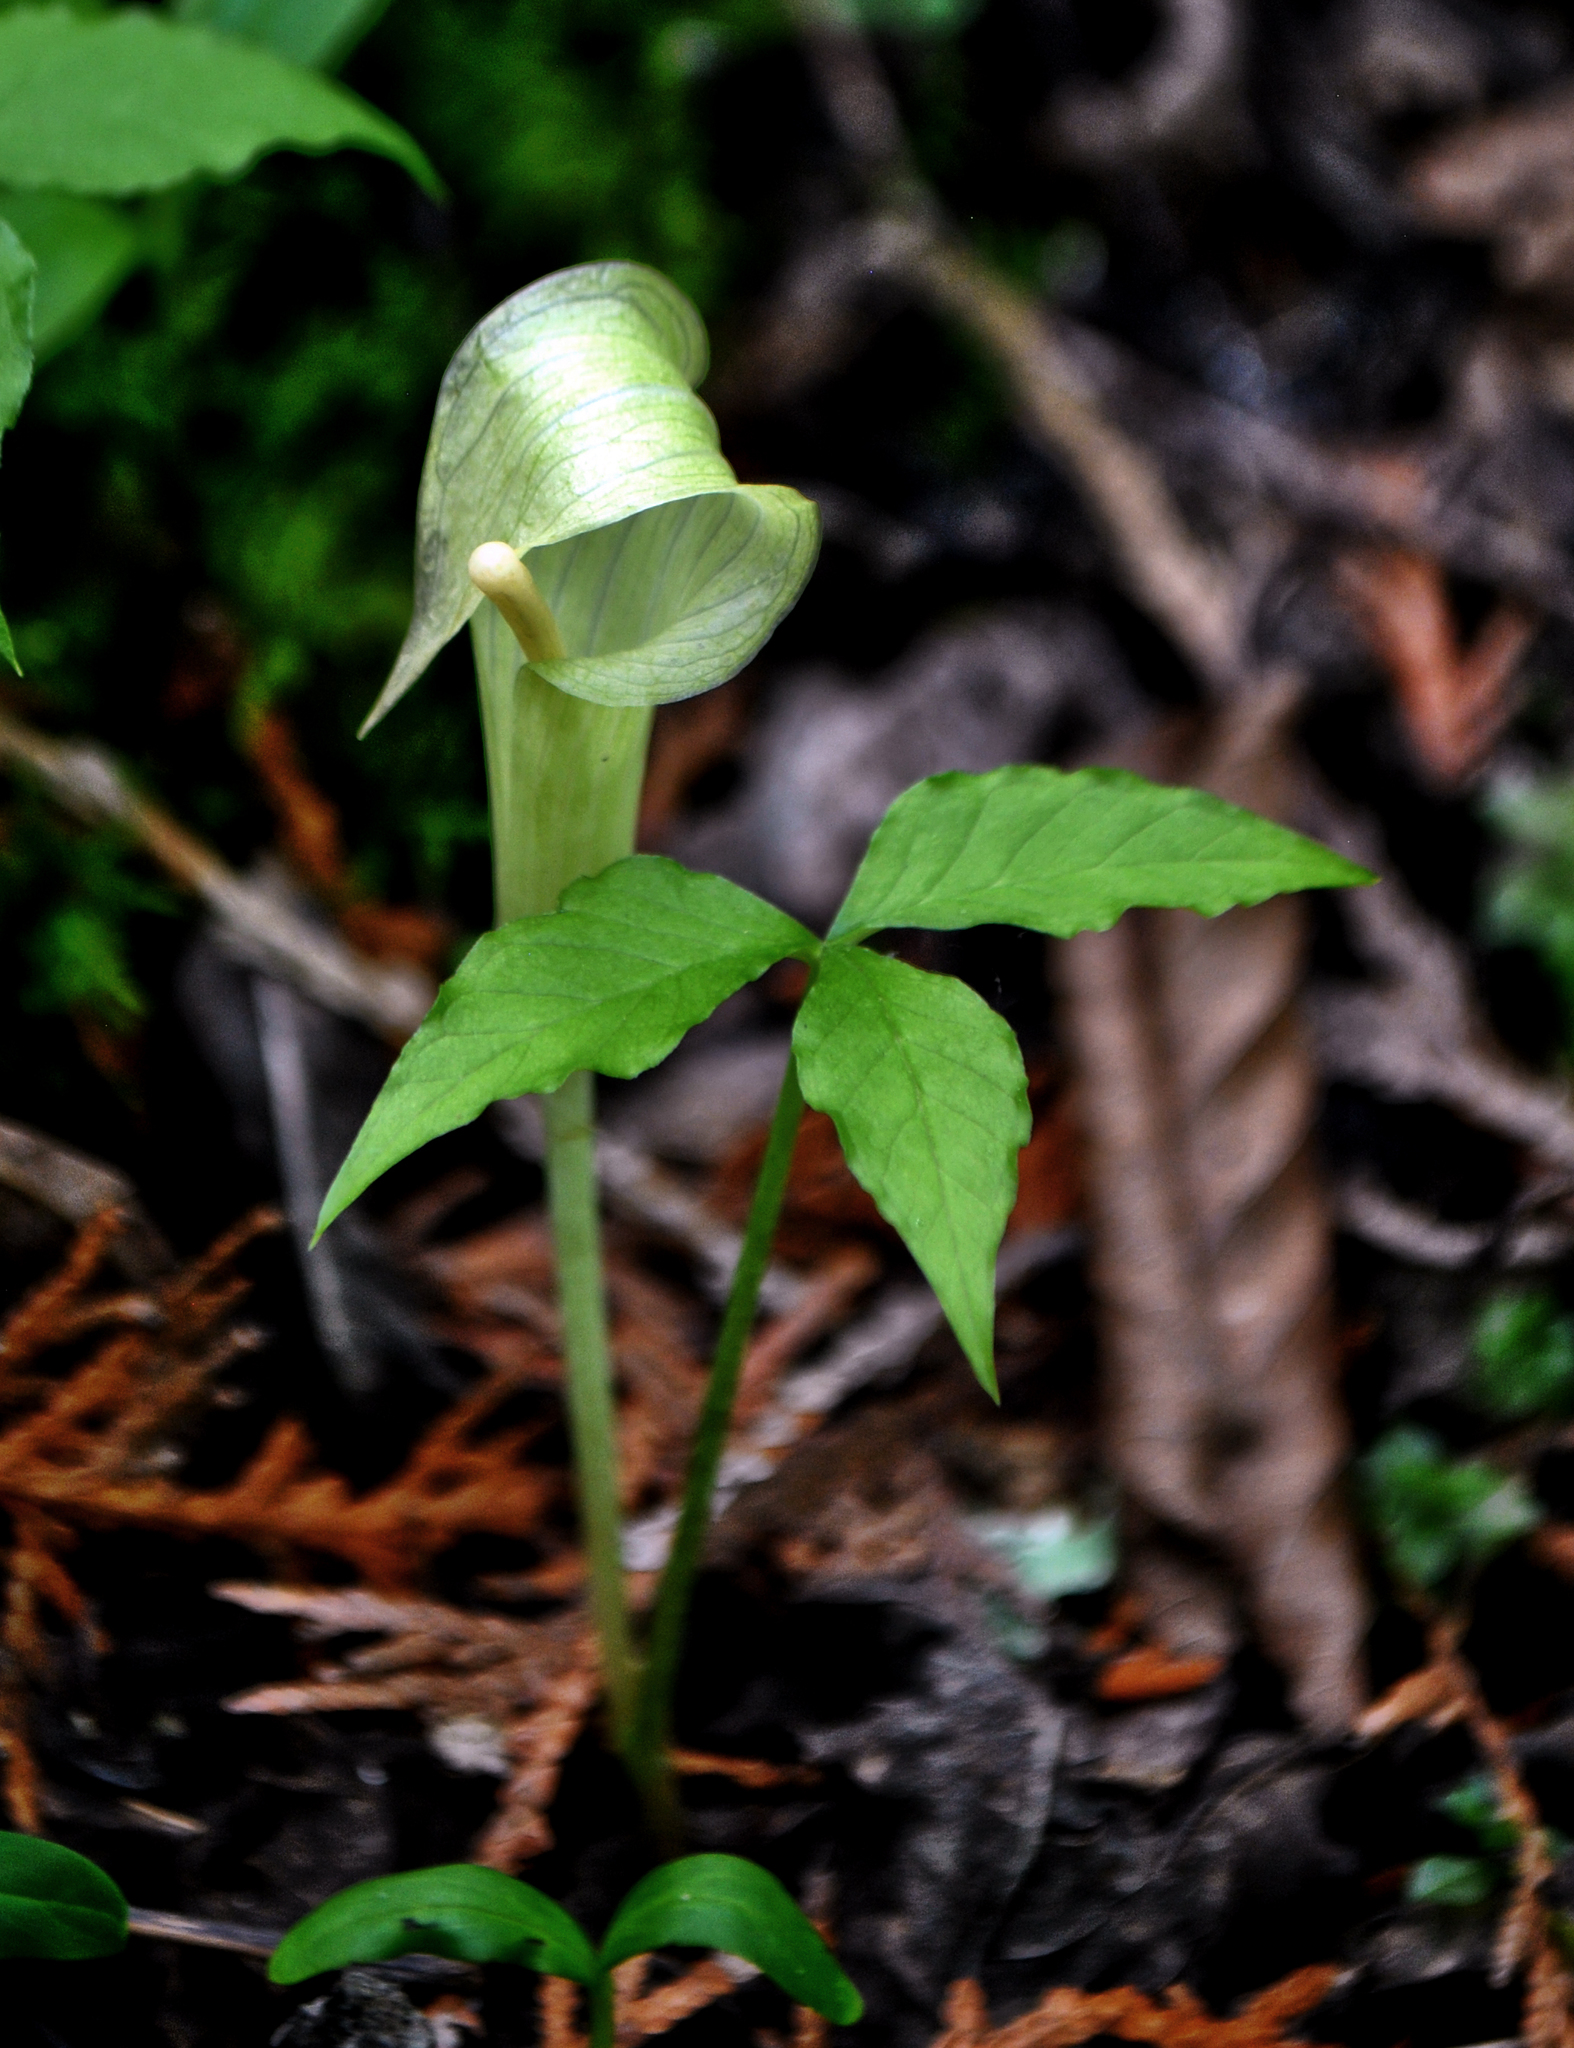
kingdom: Plantae
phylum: Tracheophyta
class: Liliopsida
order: Alismatales
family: Araceae
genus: Arisaema
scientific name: Arisaema triphyllum
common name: Jack-in-the-pulpit
